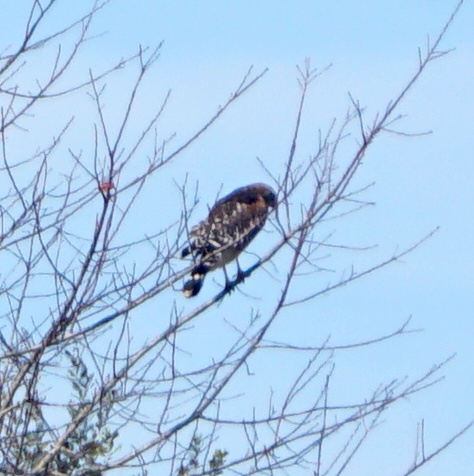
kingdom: Animalia
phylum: Chordata
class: Aves
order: Accipitriformes
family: Accipitridae
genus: Buteo
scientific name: Buteo lineatus
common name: Red-shouldered hawk
